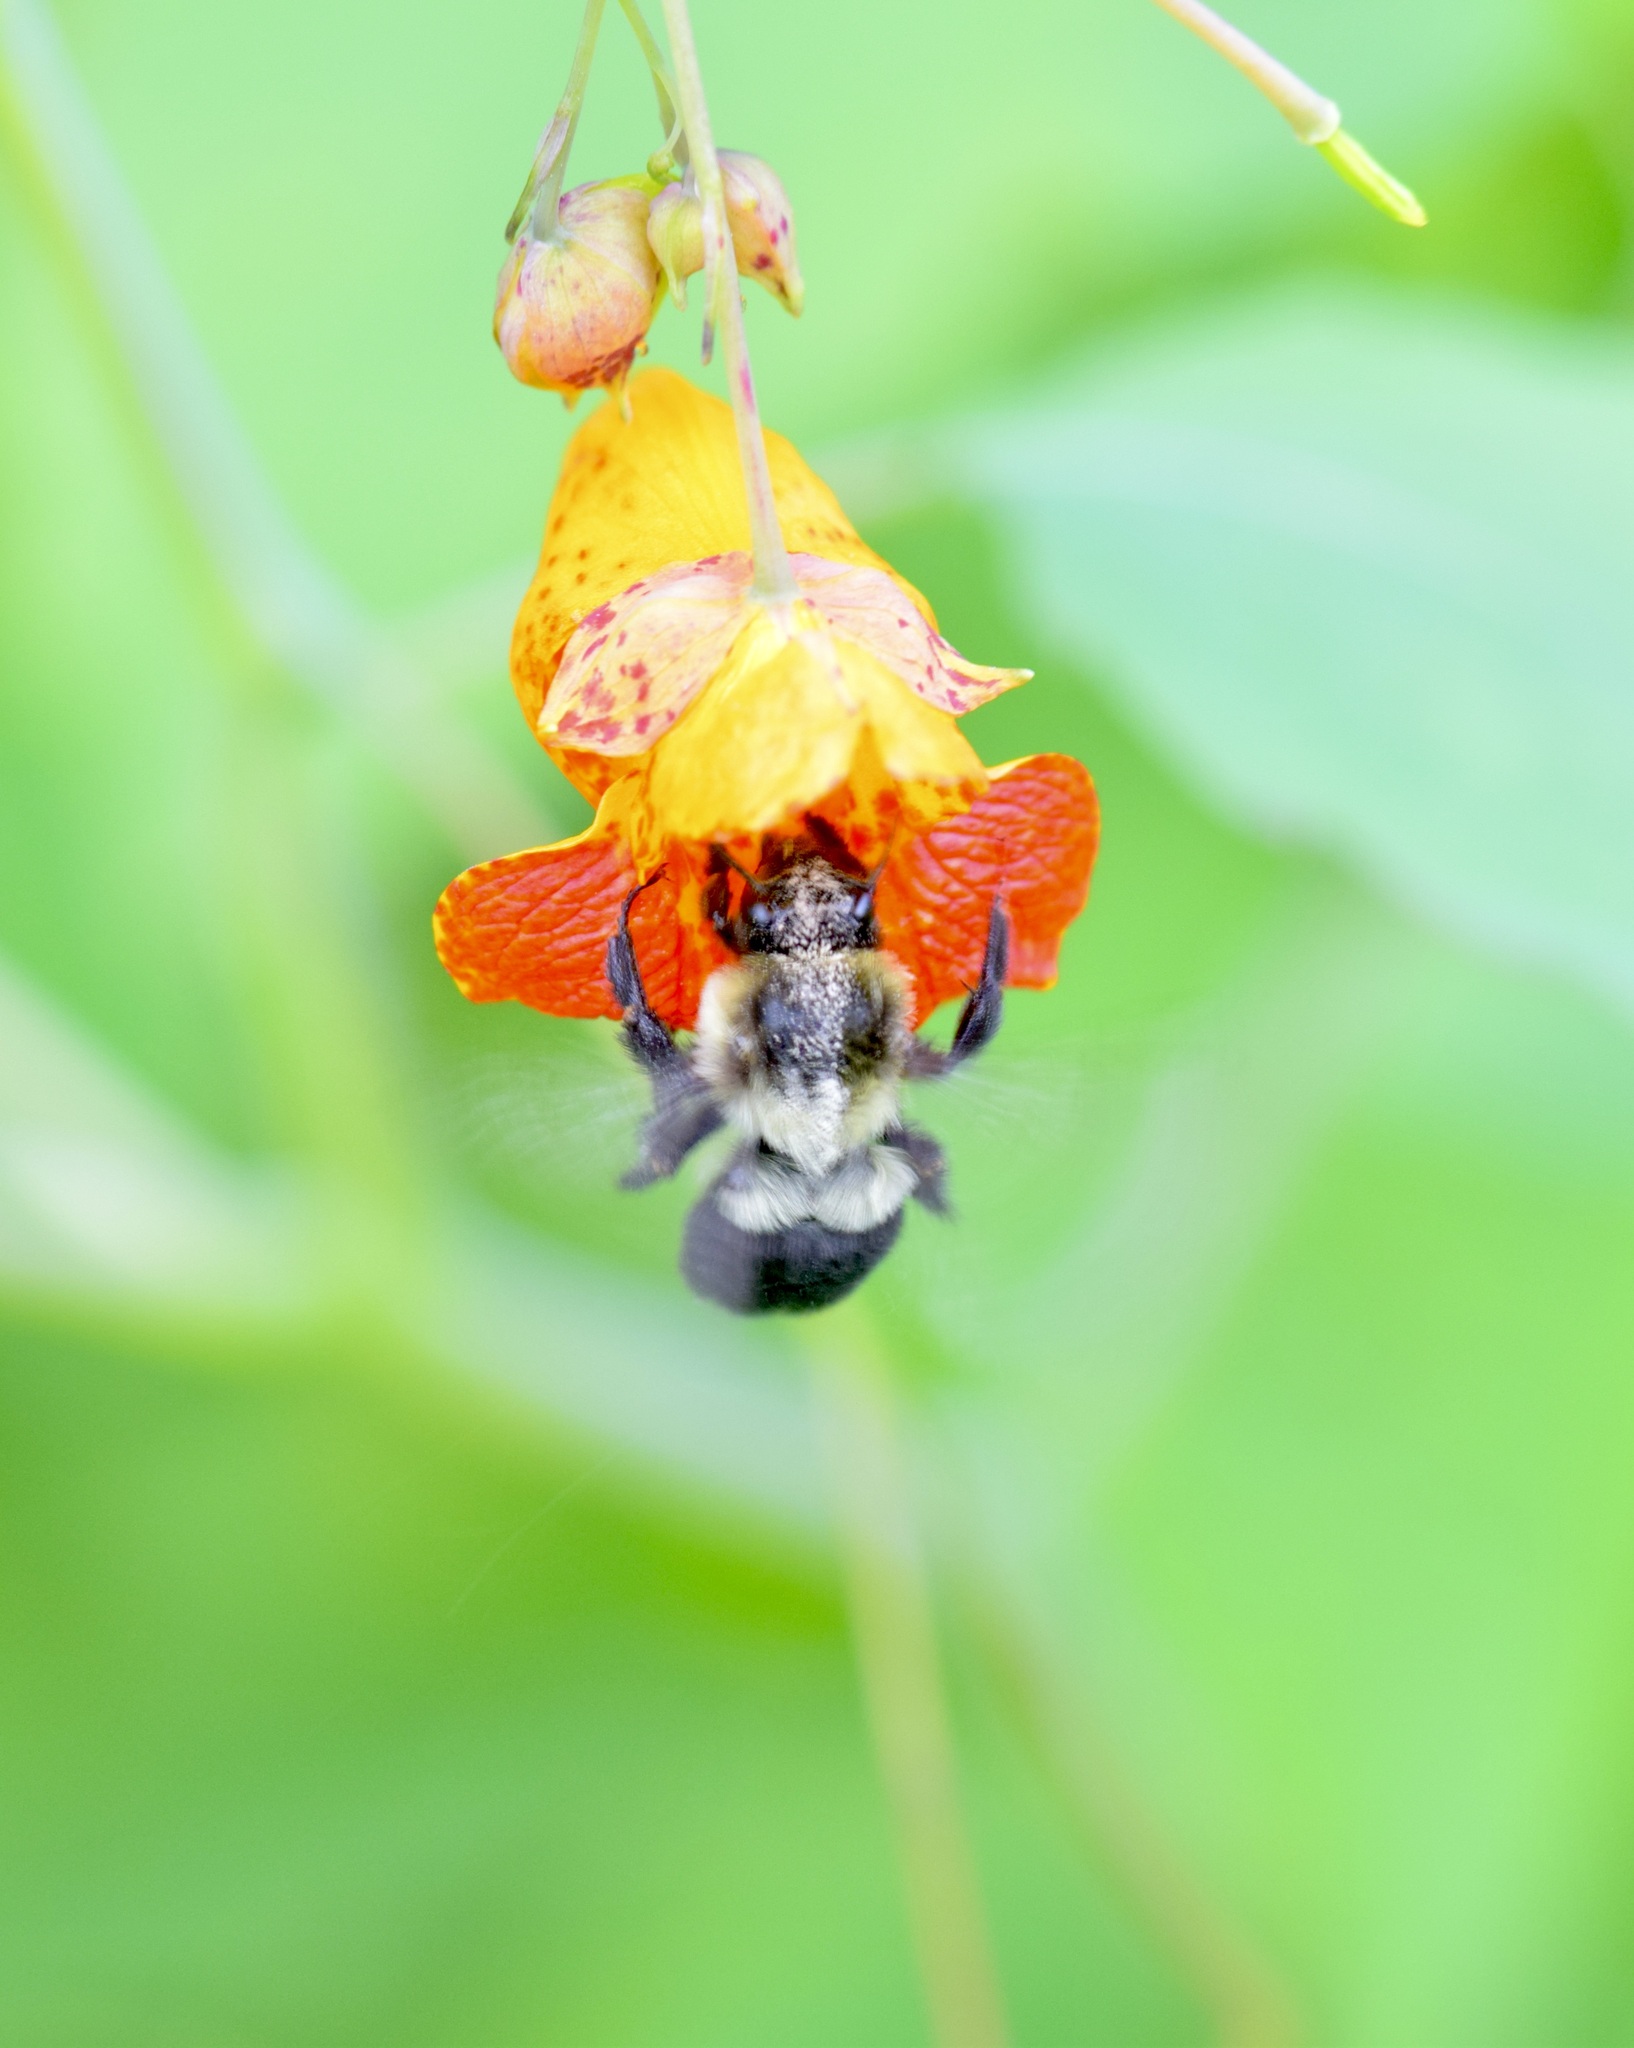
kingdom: Animalia
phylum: Arthropoda
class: Insecta
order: Hymenoptera
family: Apidae
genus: Bombus
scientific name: Bombus impatiens
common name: Common eastern bumble bee
